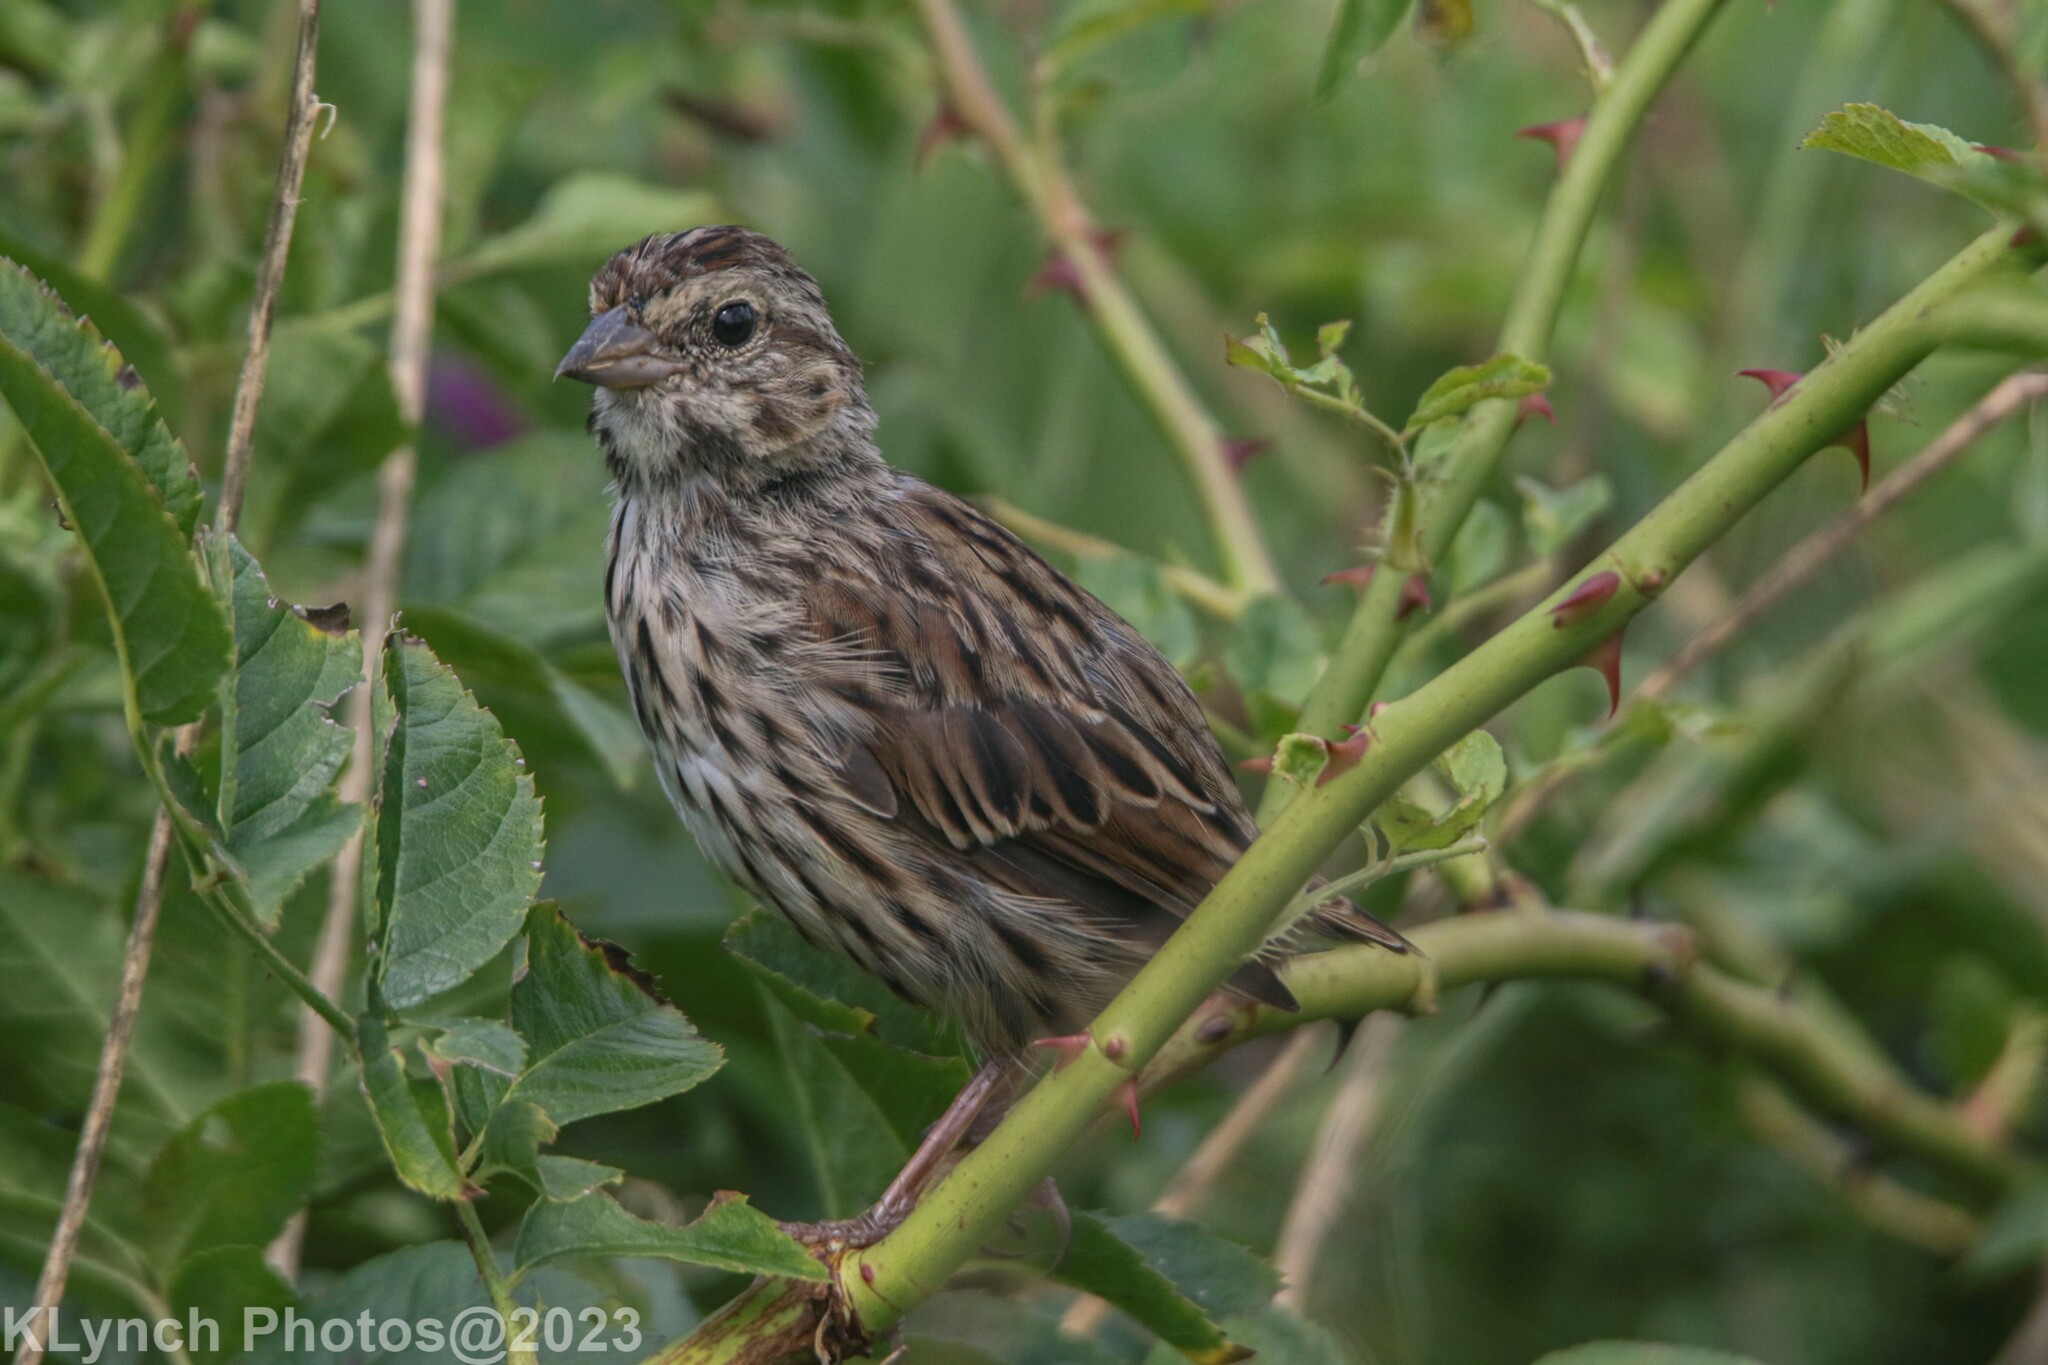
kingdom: Animalia
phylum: Chordata
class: Aves
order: Passeriformes
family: Passerellidae
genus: Melospiza
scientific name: Melospiza melodia
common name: Song sparrow
